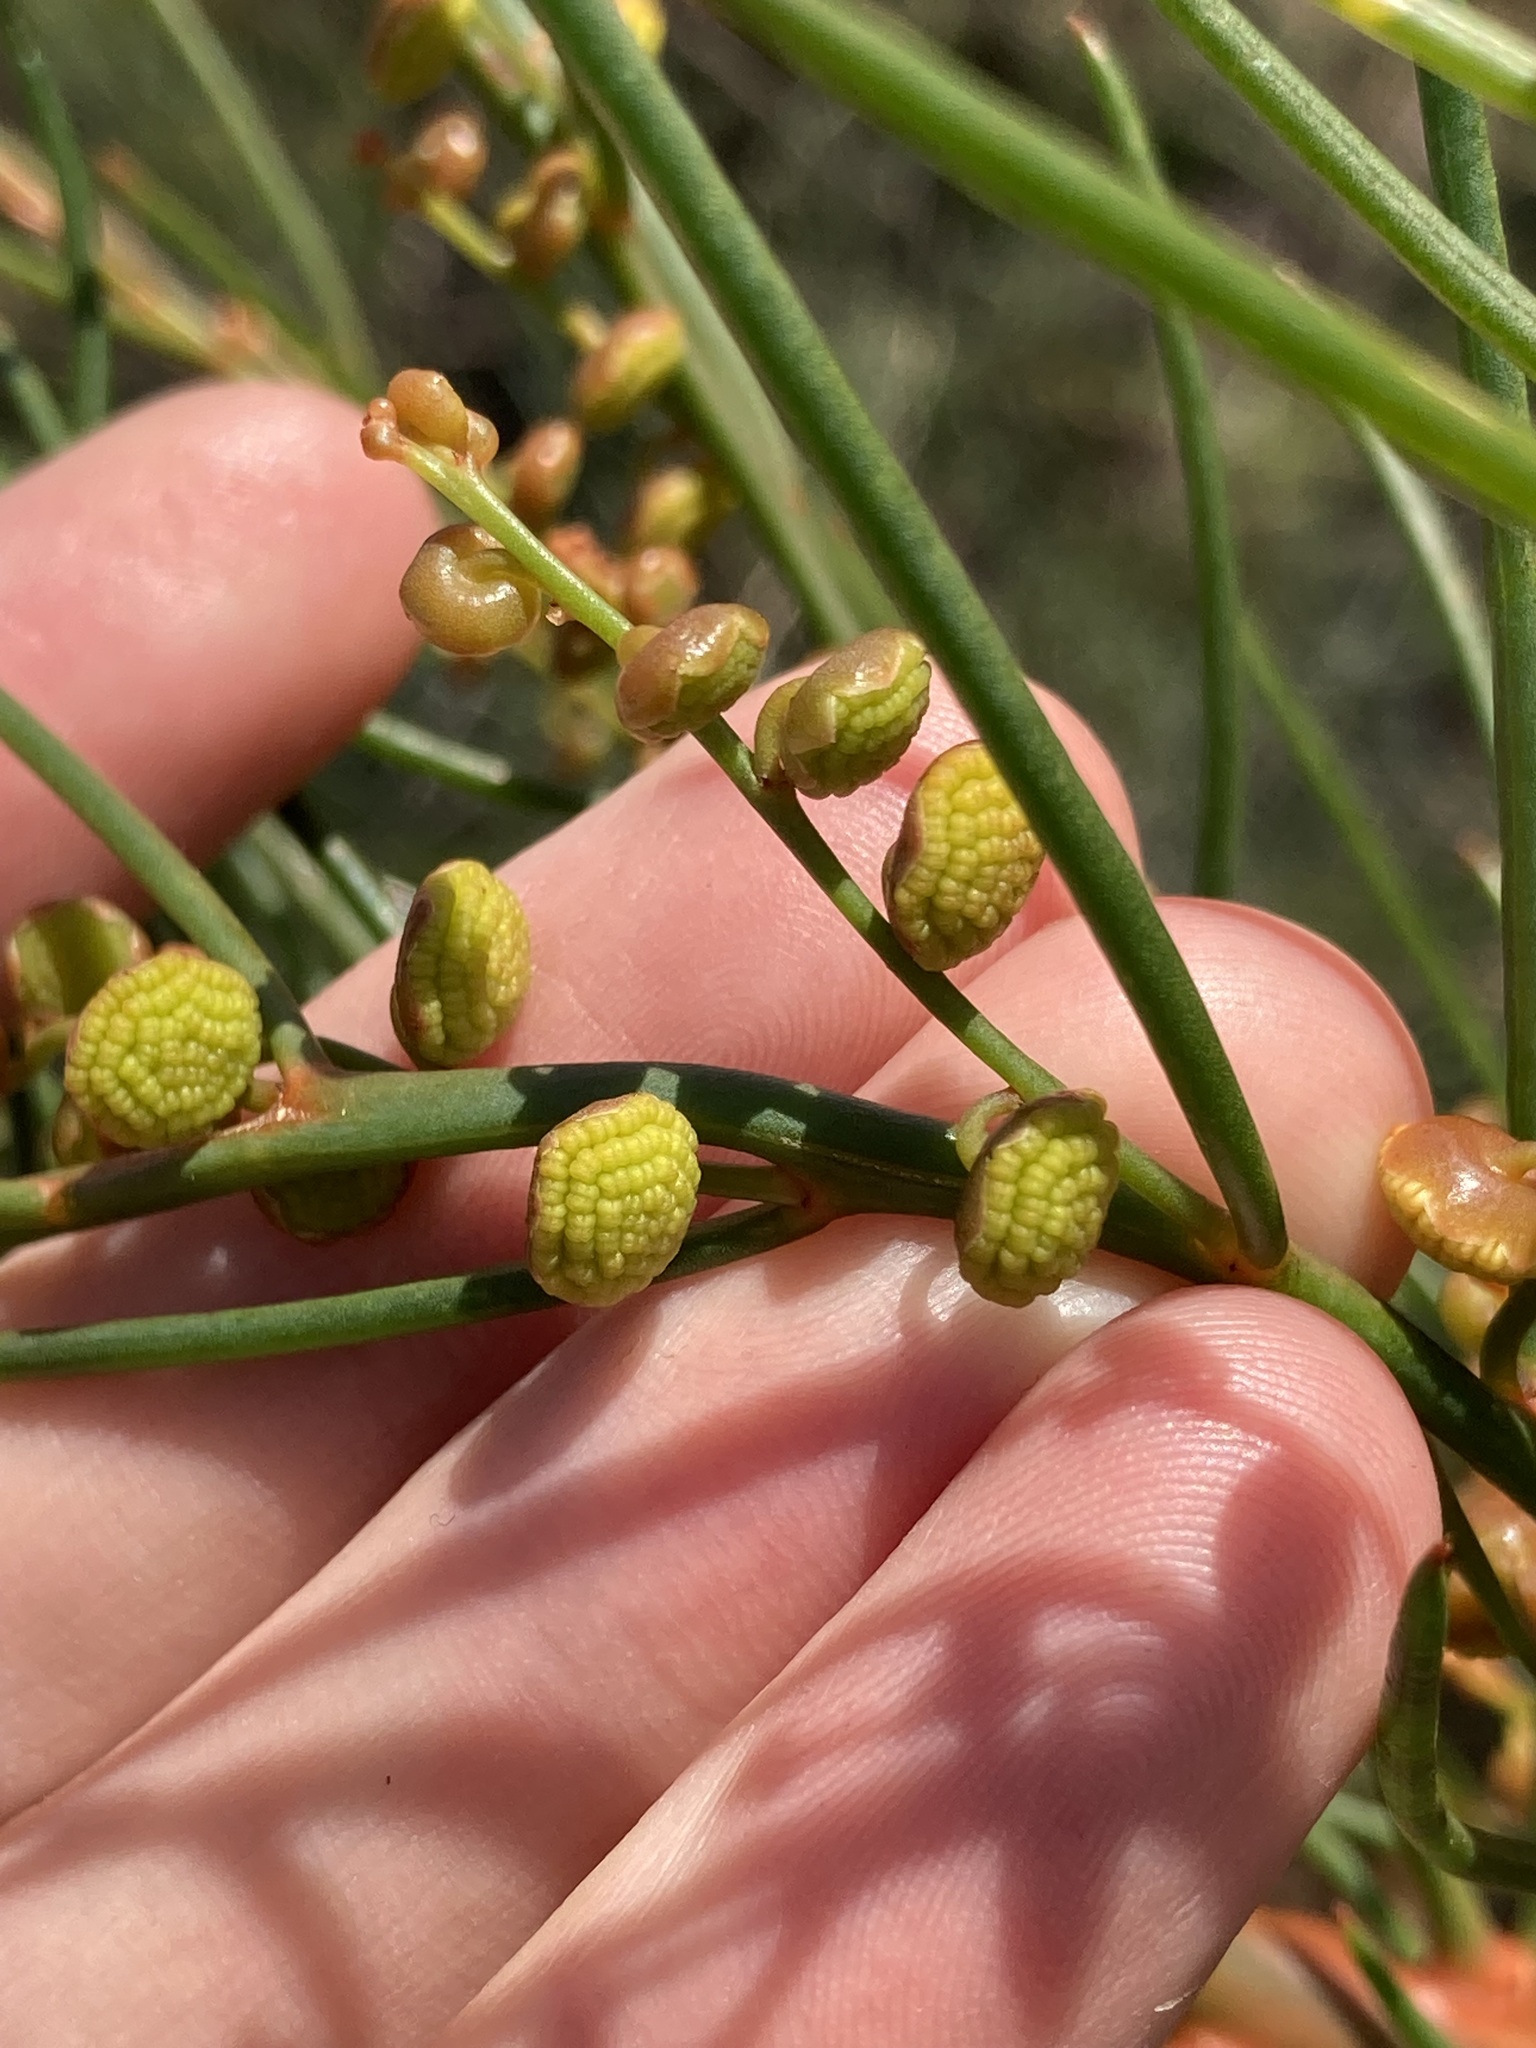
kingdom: Plantae
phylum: Tracheophyta
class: Magnoliopsida
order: Brassicales
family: Gyrostemonaceae
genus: Gyrostemon
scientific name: Gyrostemon racemiger
